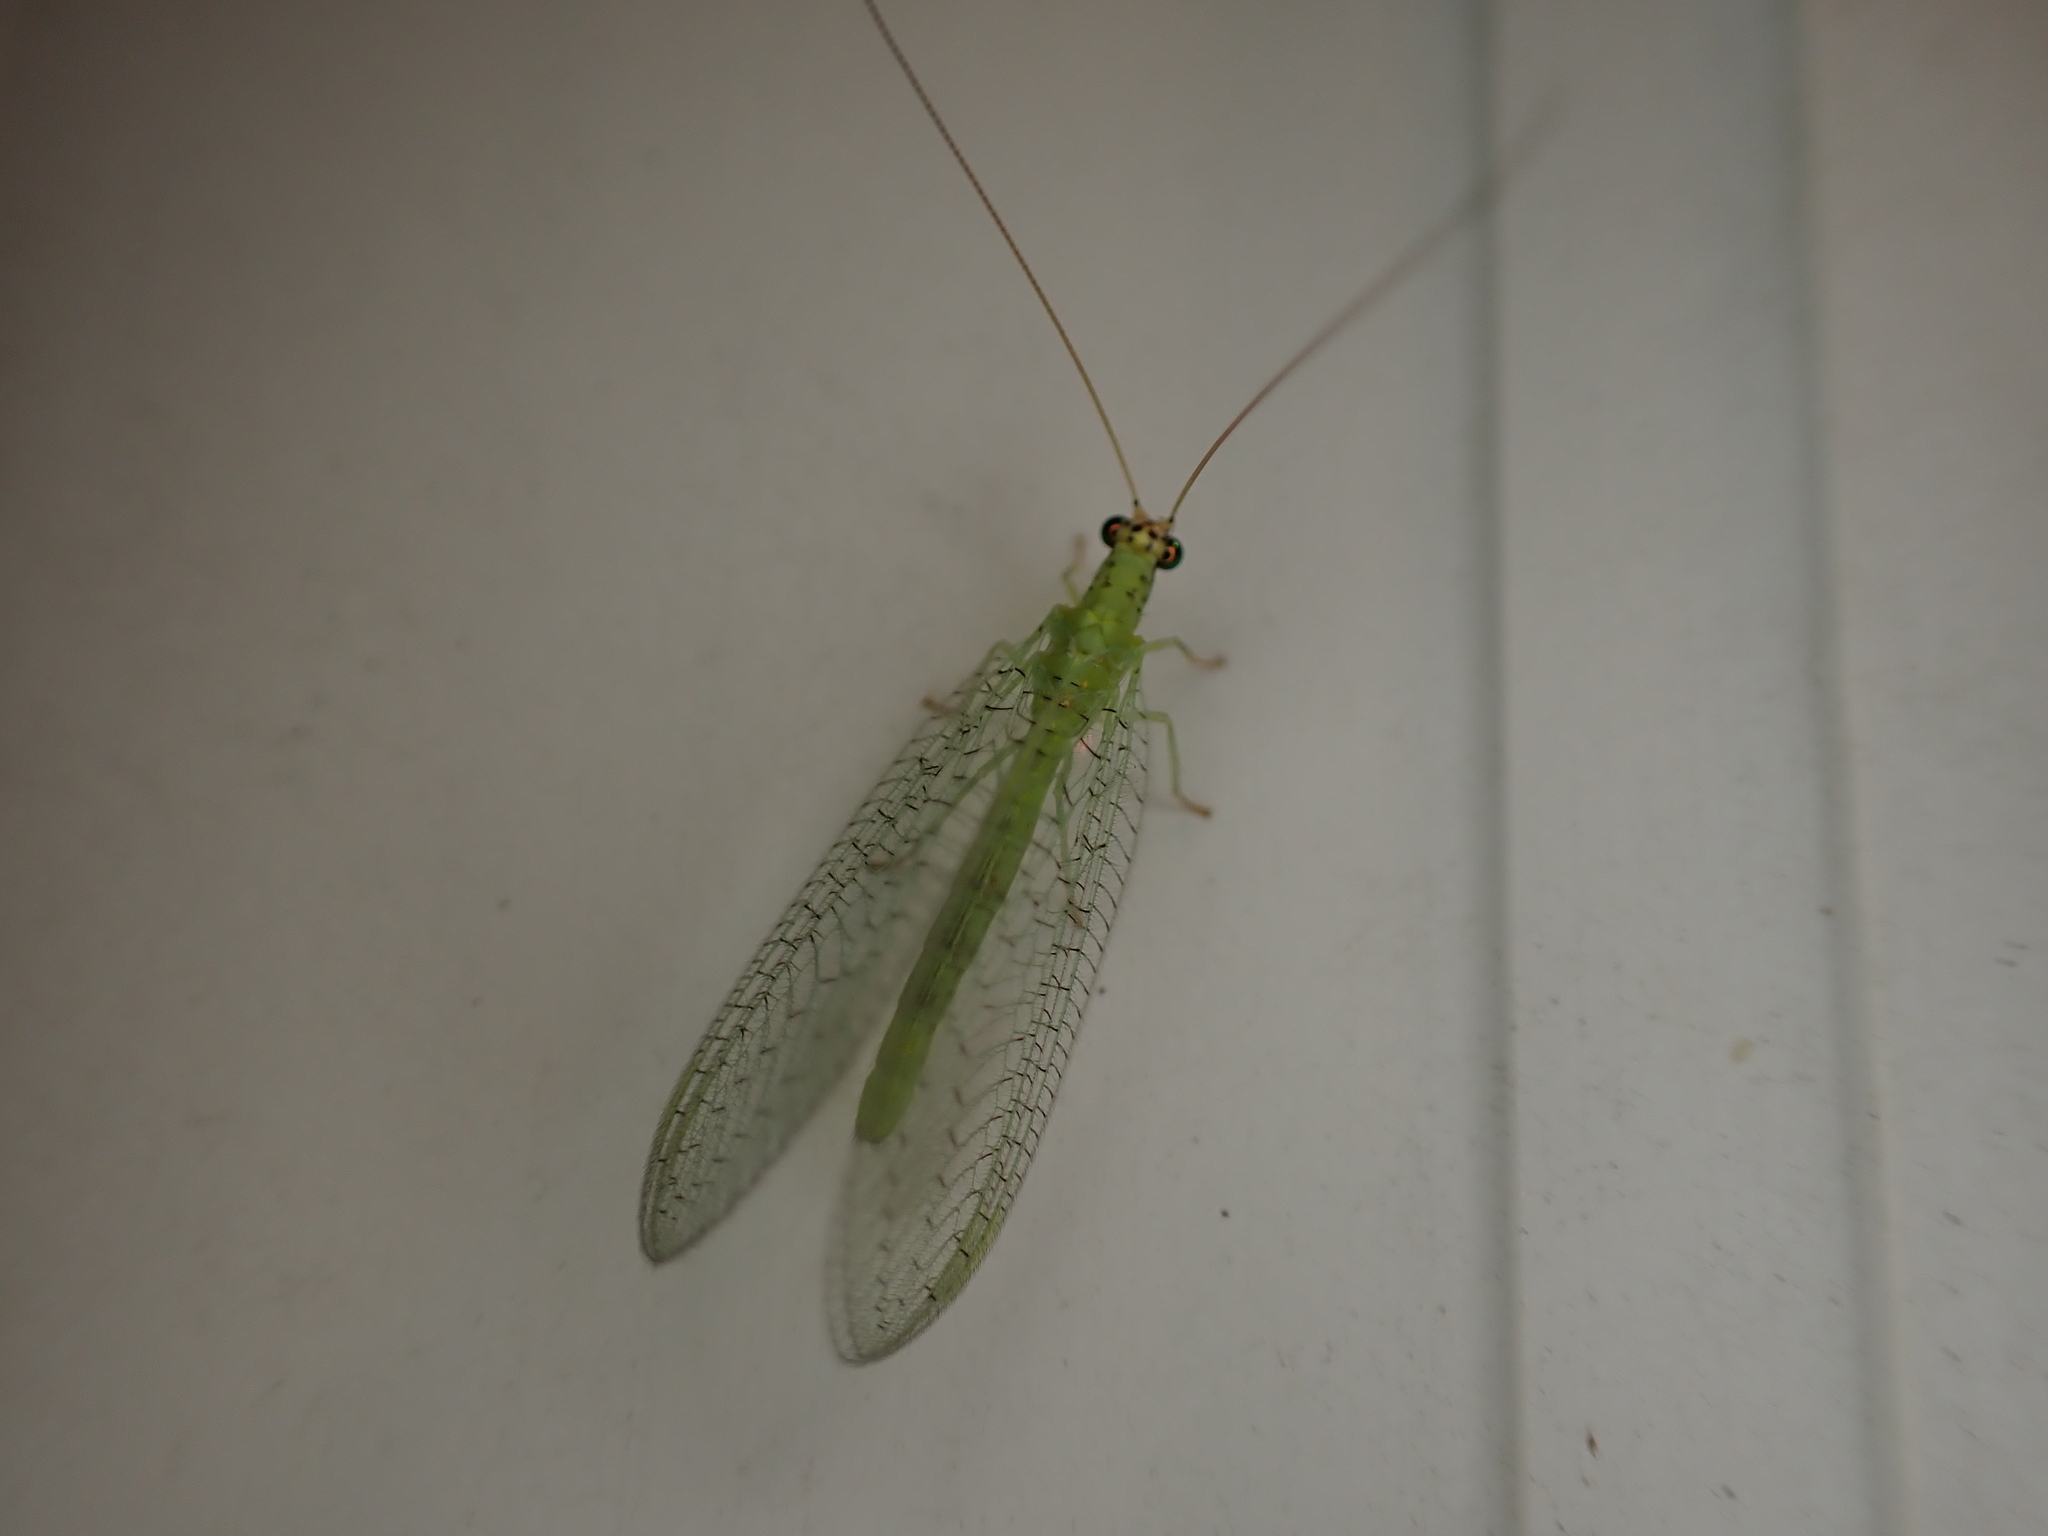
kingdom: Animalia
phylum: Arthropoda
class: Insecta
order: Neuroptera
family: Chrysopidae
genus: Chrysopa
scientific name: Chrysopa oculata
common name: Golden-eyed lacewing
